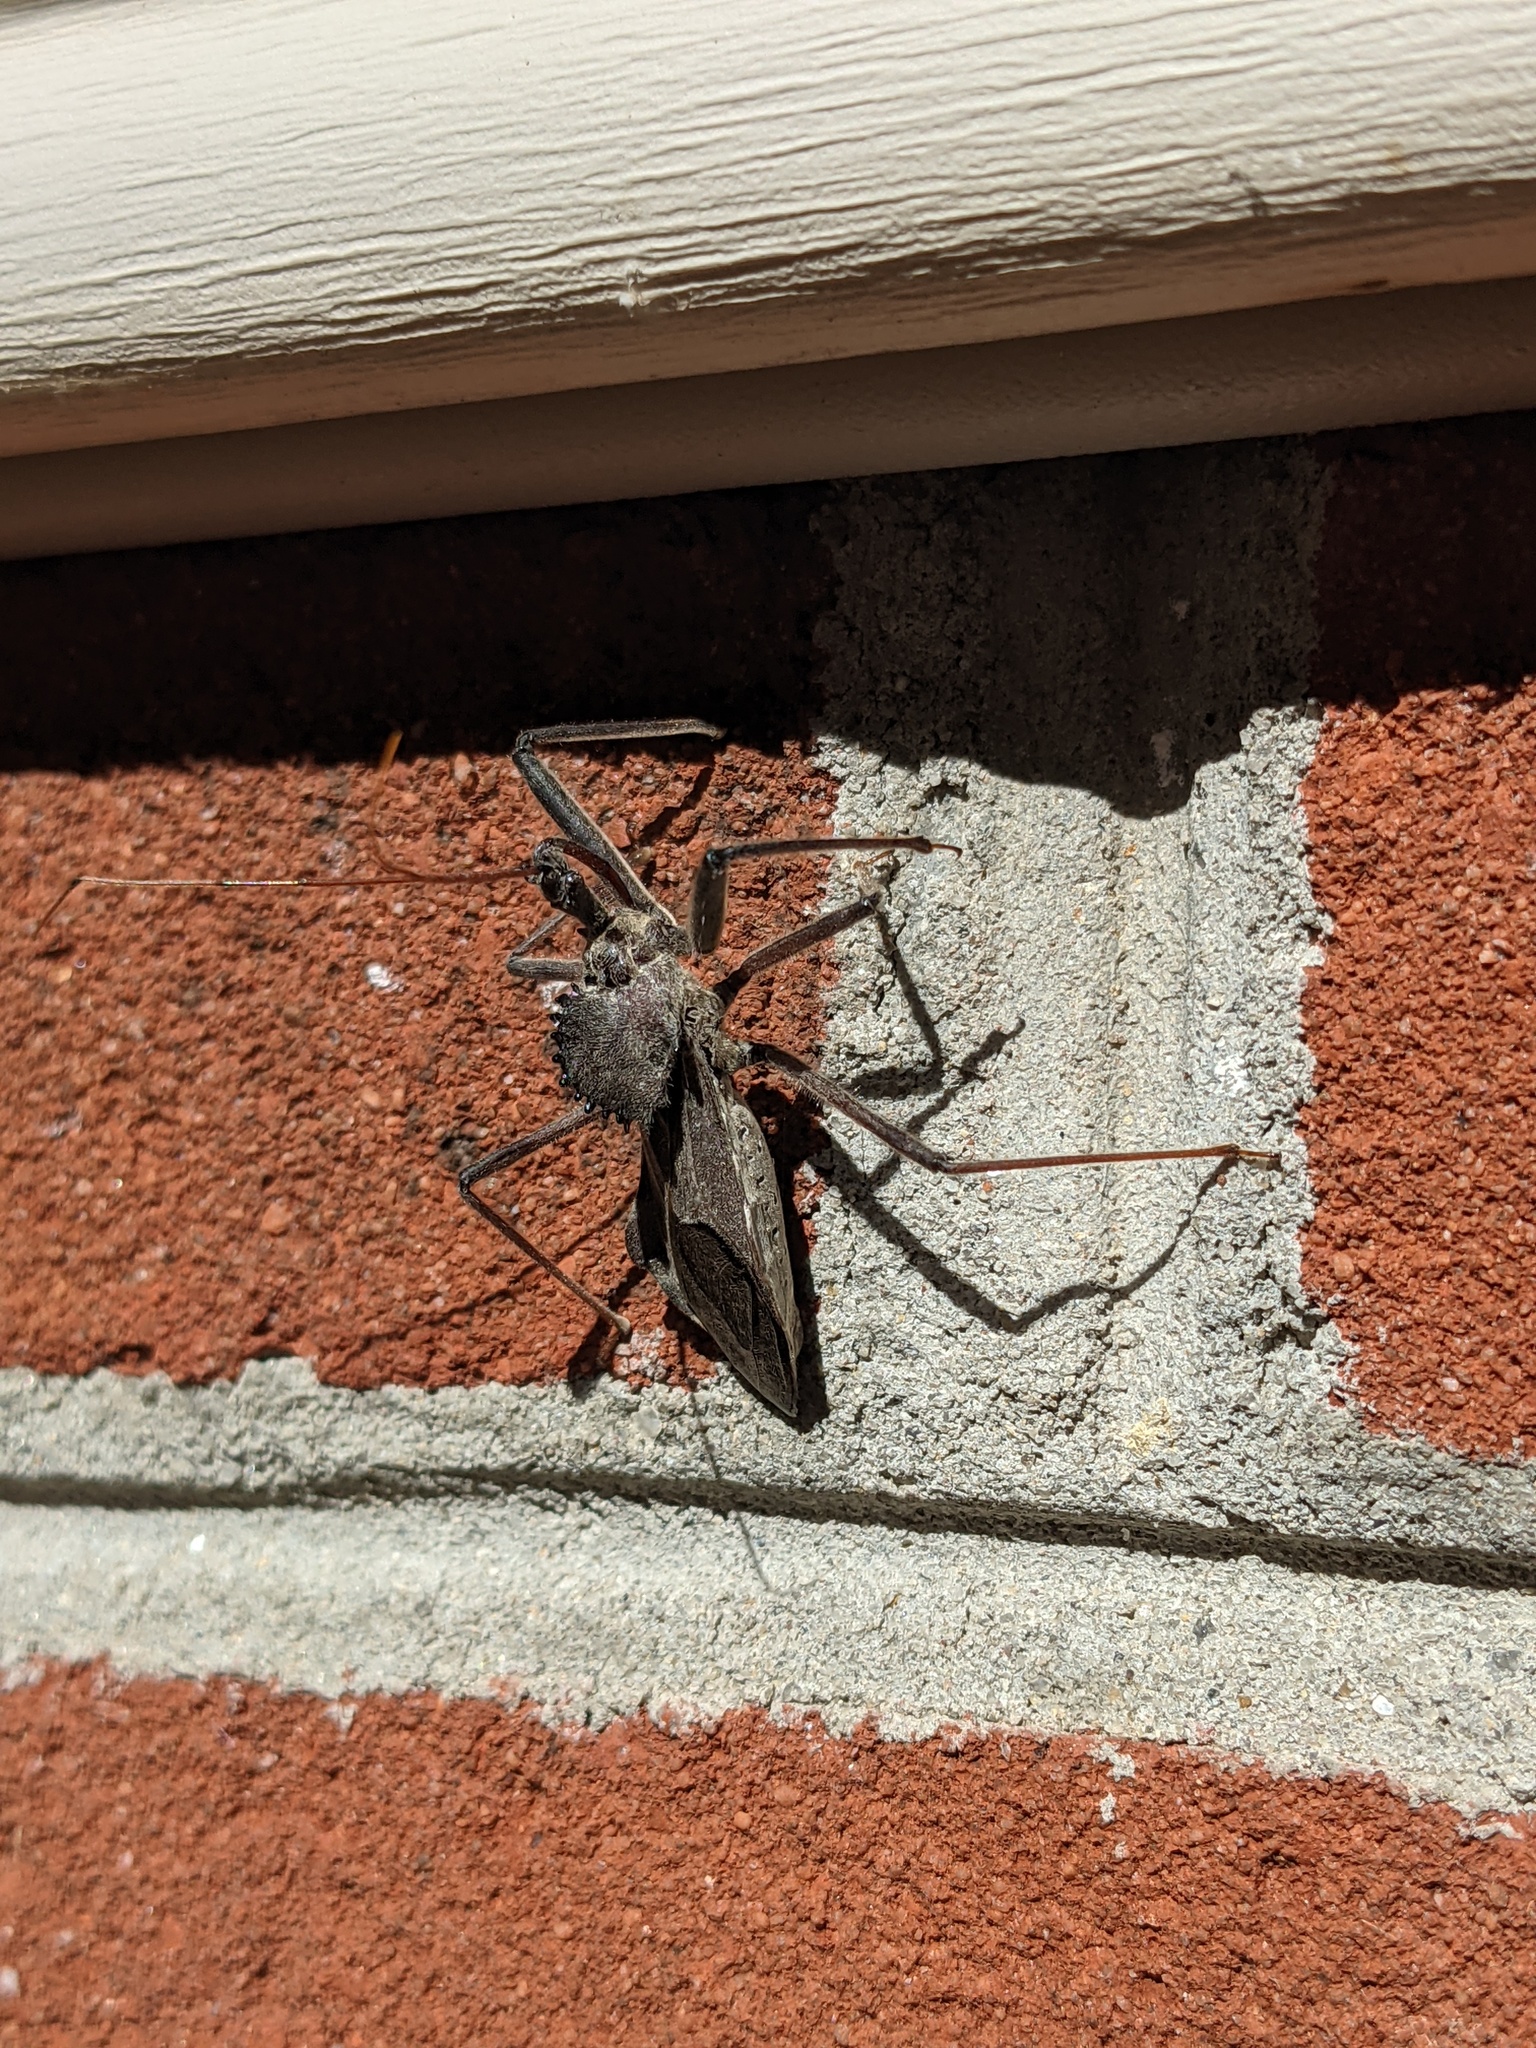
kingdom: Animalia
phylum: Arthropoda
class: Insecta
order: Hemiptera
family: Reduviidae
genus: Arilus
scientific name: Arilus cristatus
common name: North american wheel bug
